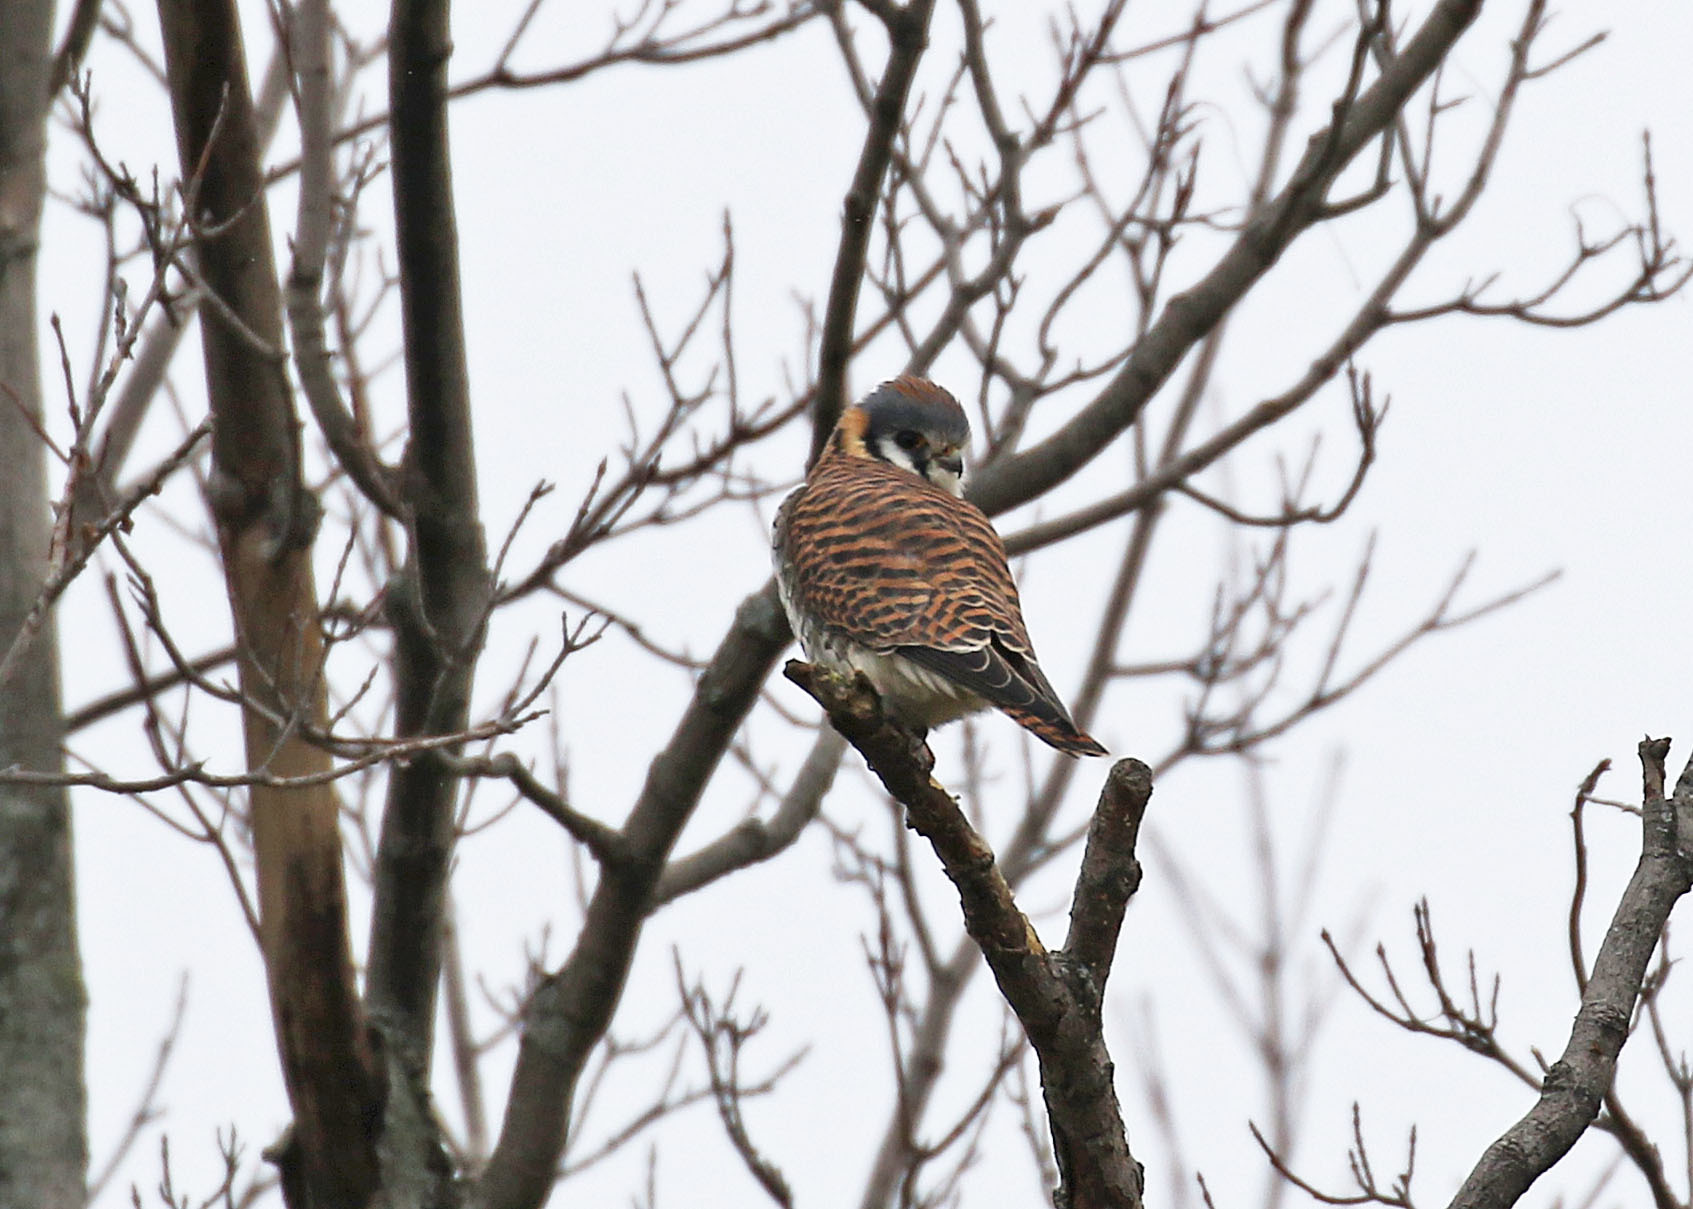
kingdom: Animalia
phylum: Chordata
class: Aves
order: Falconiformes
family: Falconidae
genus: Falco
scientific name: Falco sparverius
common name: American kestrel
